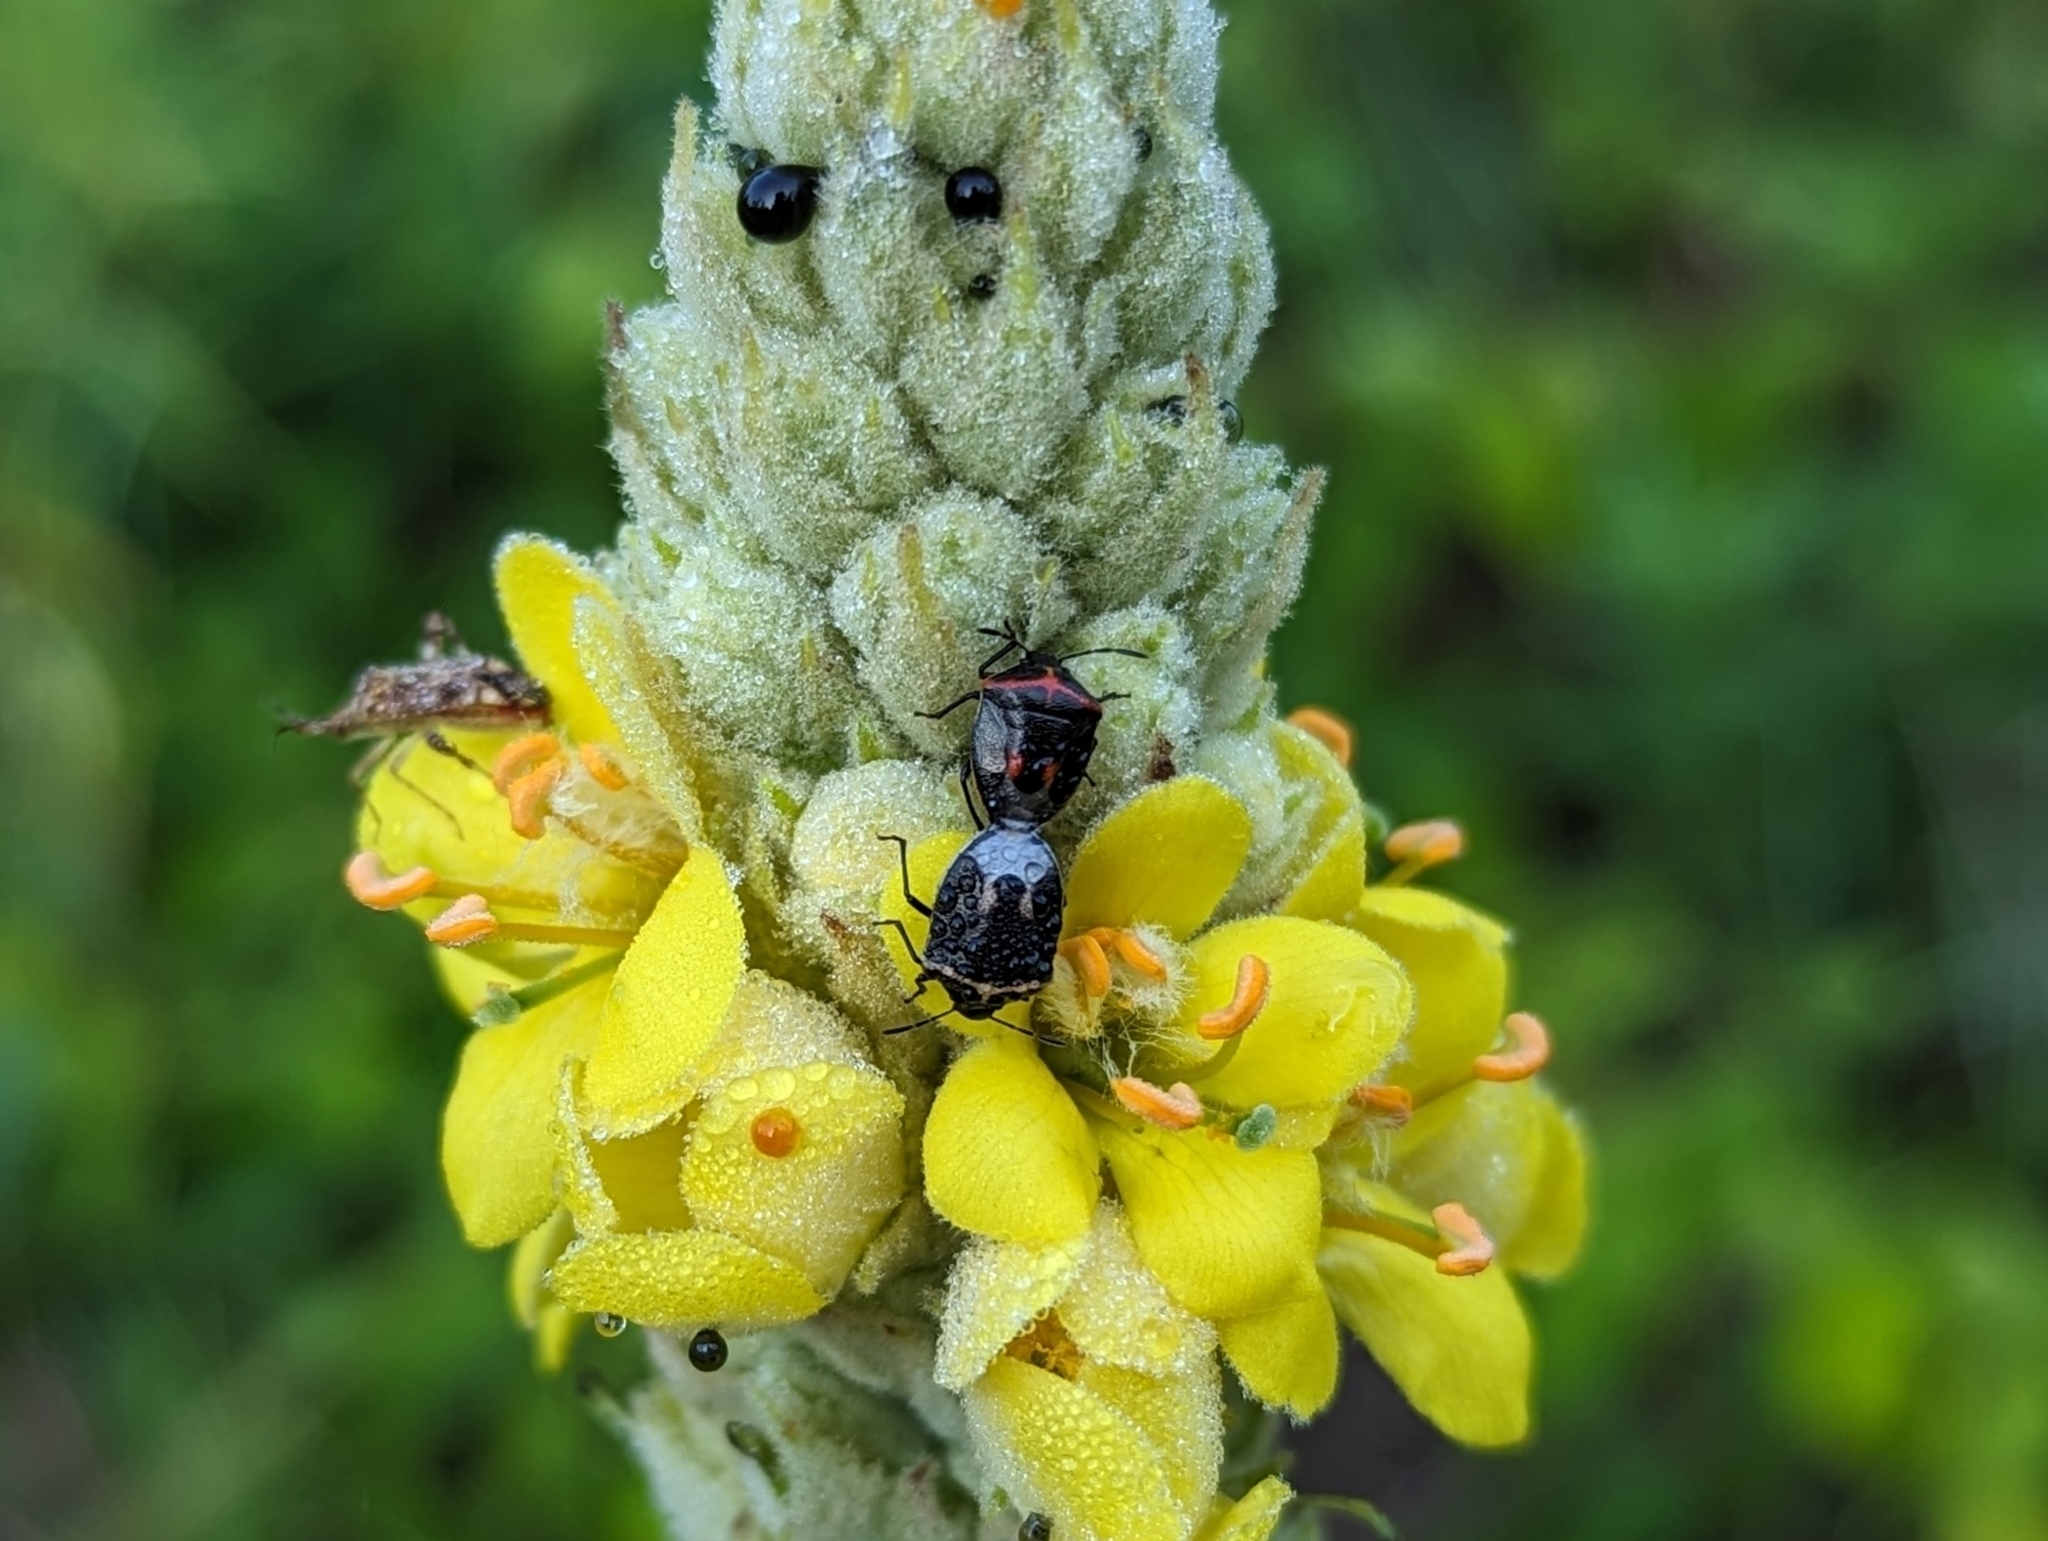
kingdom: Animalia
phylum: Arthropoda
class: Insecta
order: Hemiptera
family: Pentatomidae
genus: Cosmopepla
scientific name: Cosmopepla lintneriana
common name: Twice-stabbed stink bug
